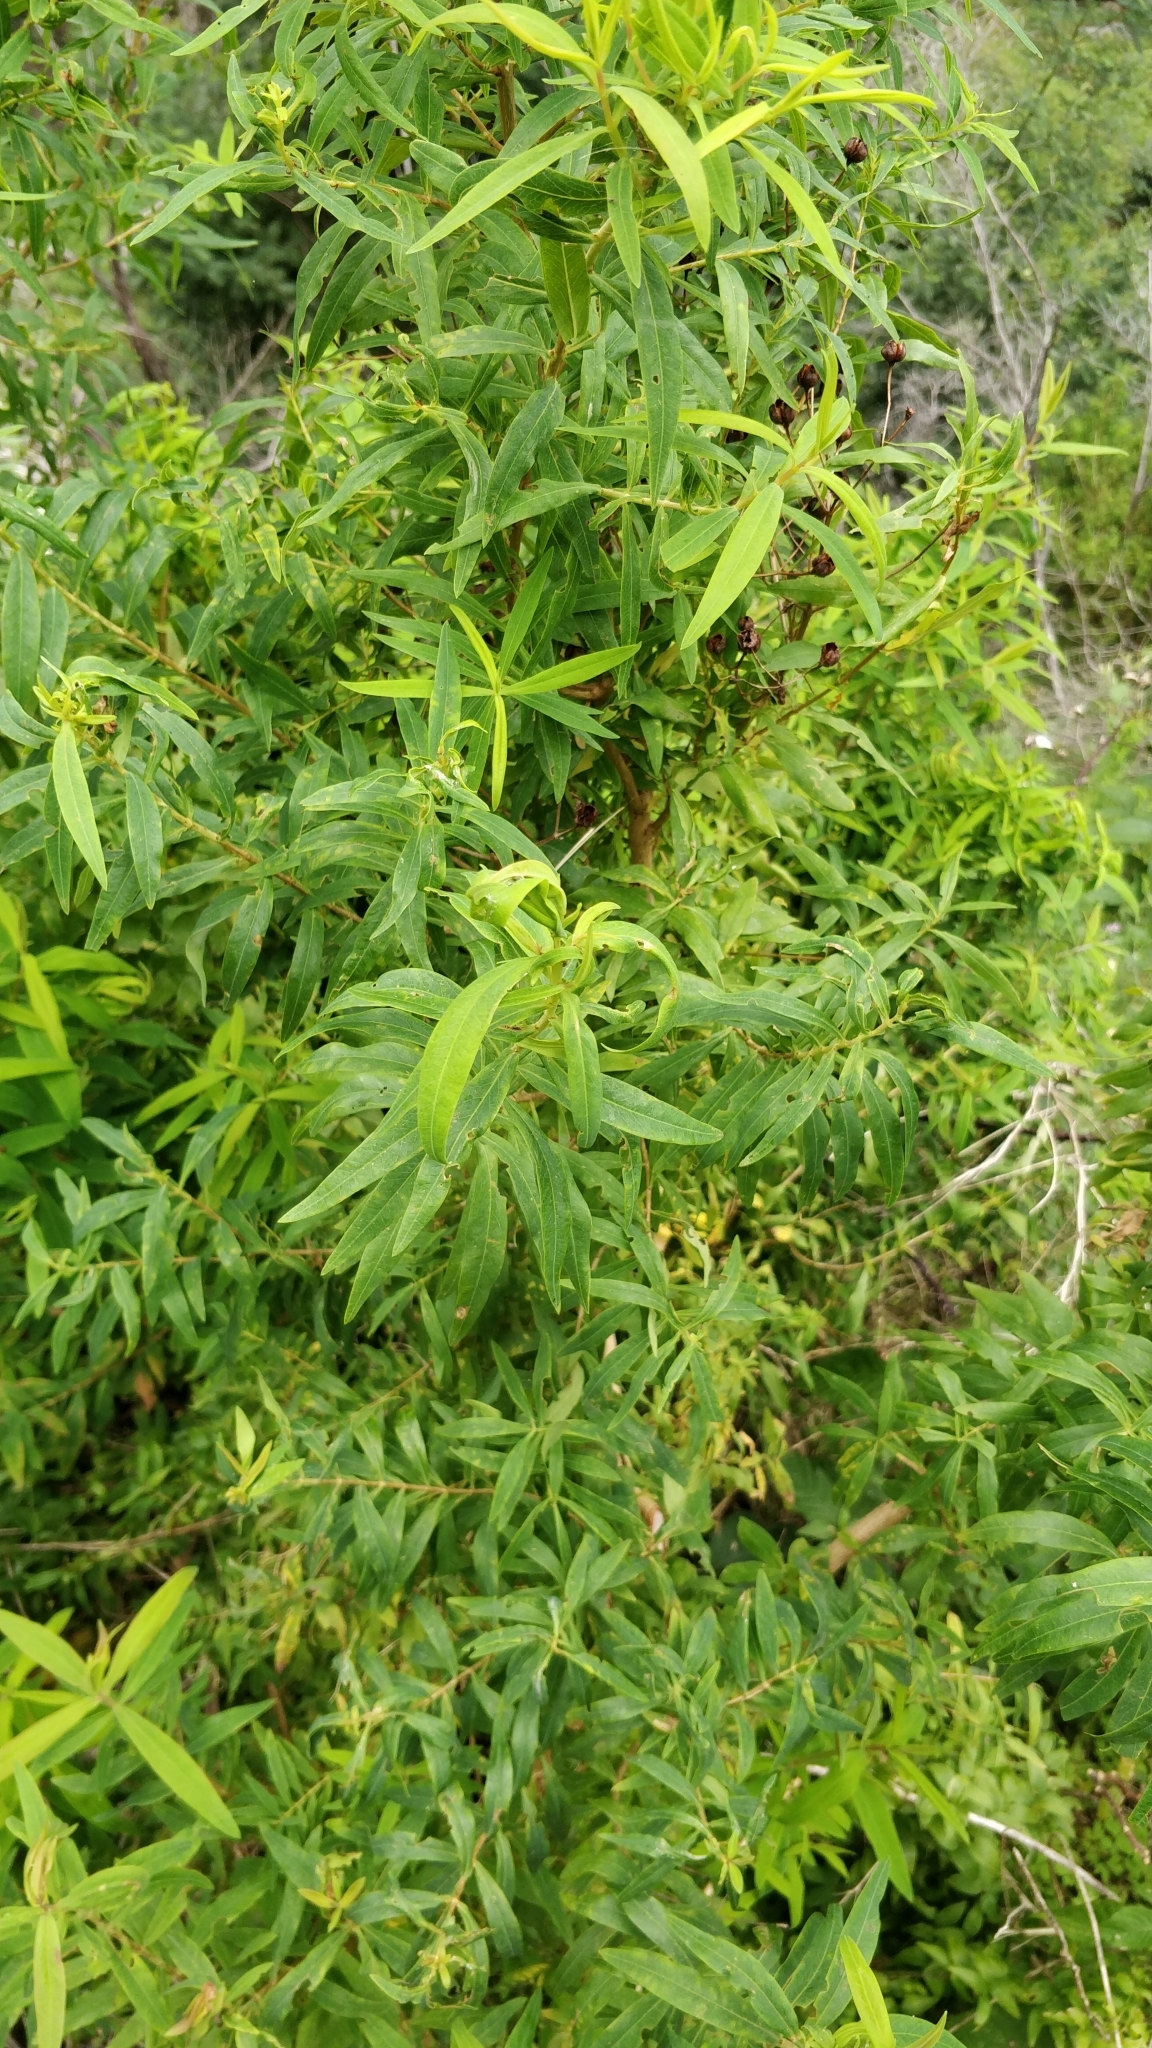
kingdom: Plantae
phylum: Tracheophyta
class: Magnoliopsida
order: Malpighiales
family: Hypericaceae
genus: Hypericum
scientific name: Hypericum canariense
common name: Canary island st. johnswort
